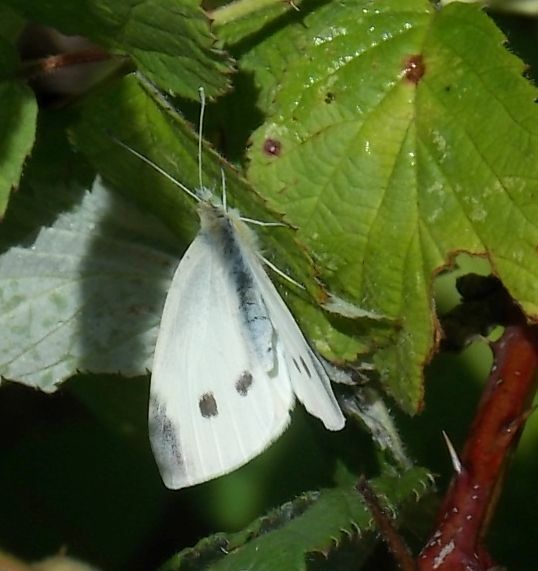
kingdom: Animalia
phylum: Arthropoda
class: Insecta
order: Lepidoptera
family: Pieridae
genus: Pieris
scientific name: Pieris rapae
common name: Small white
